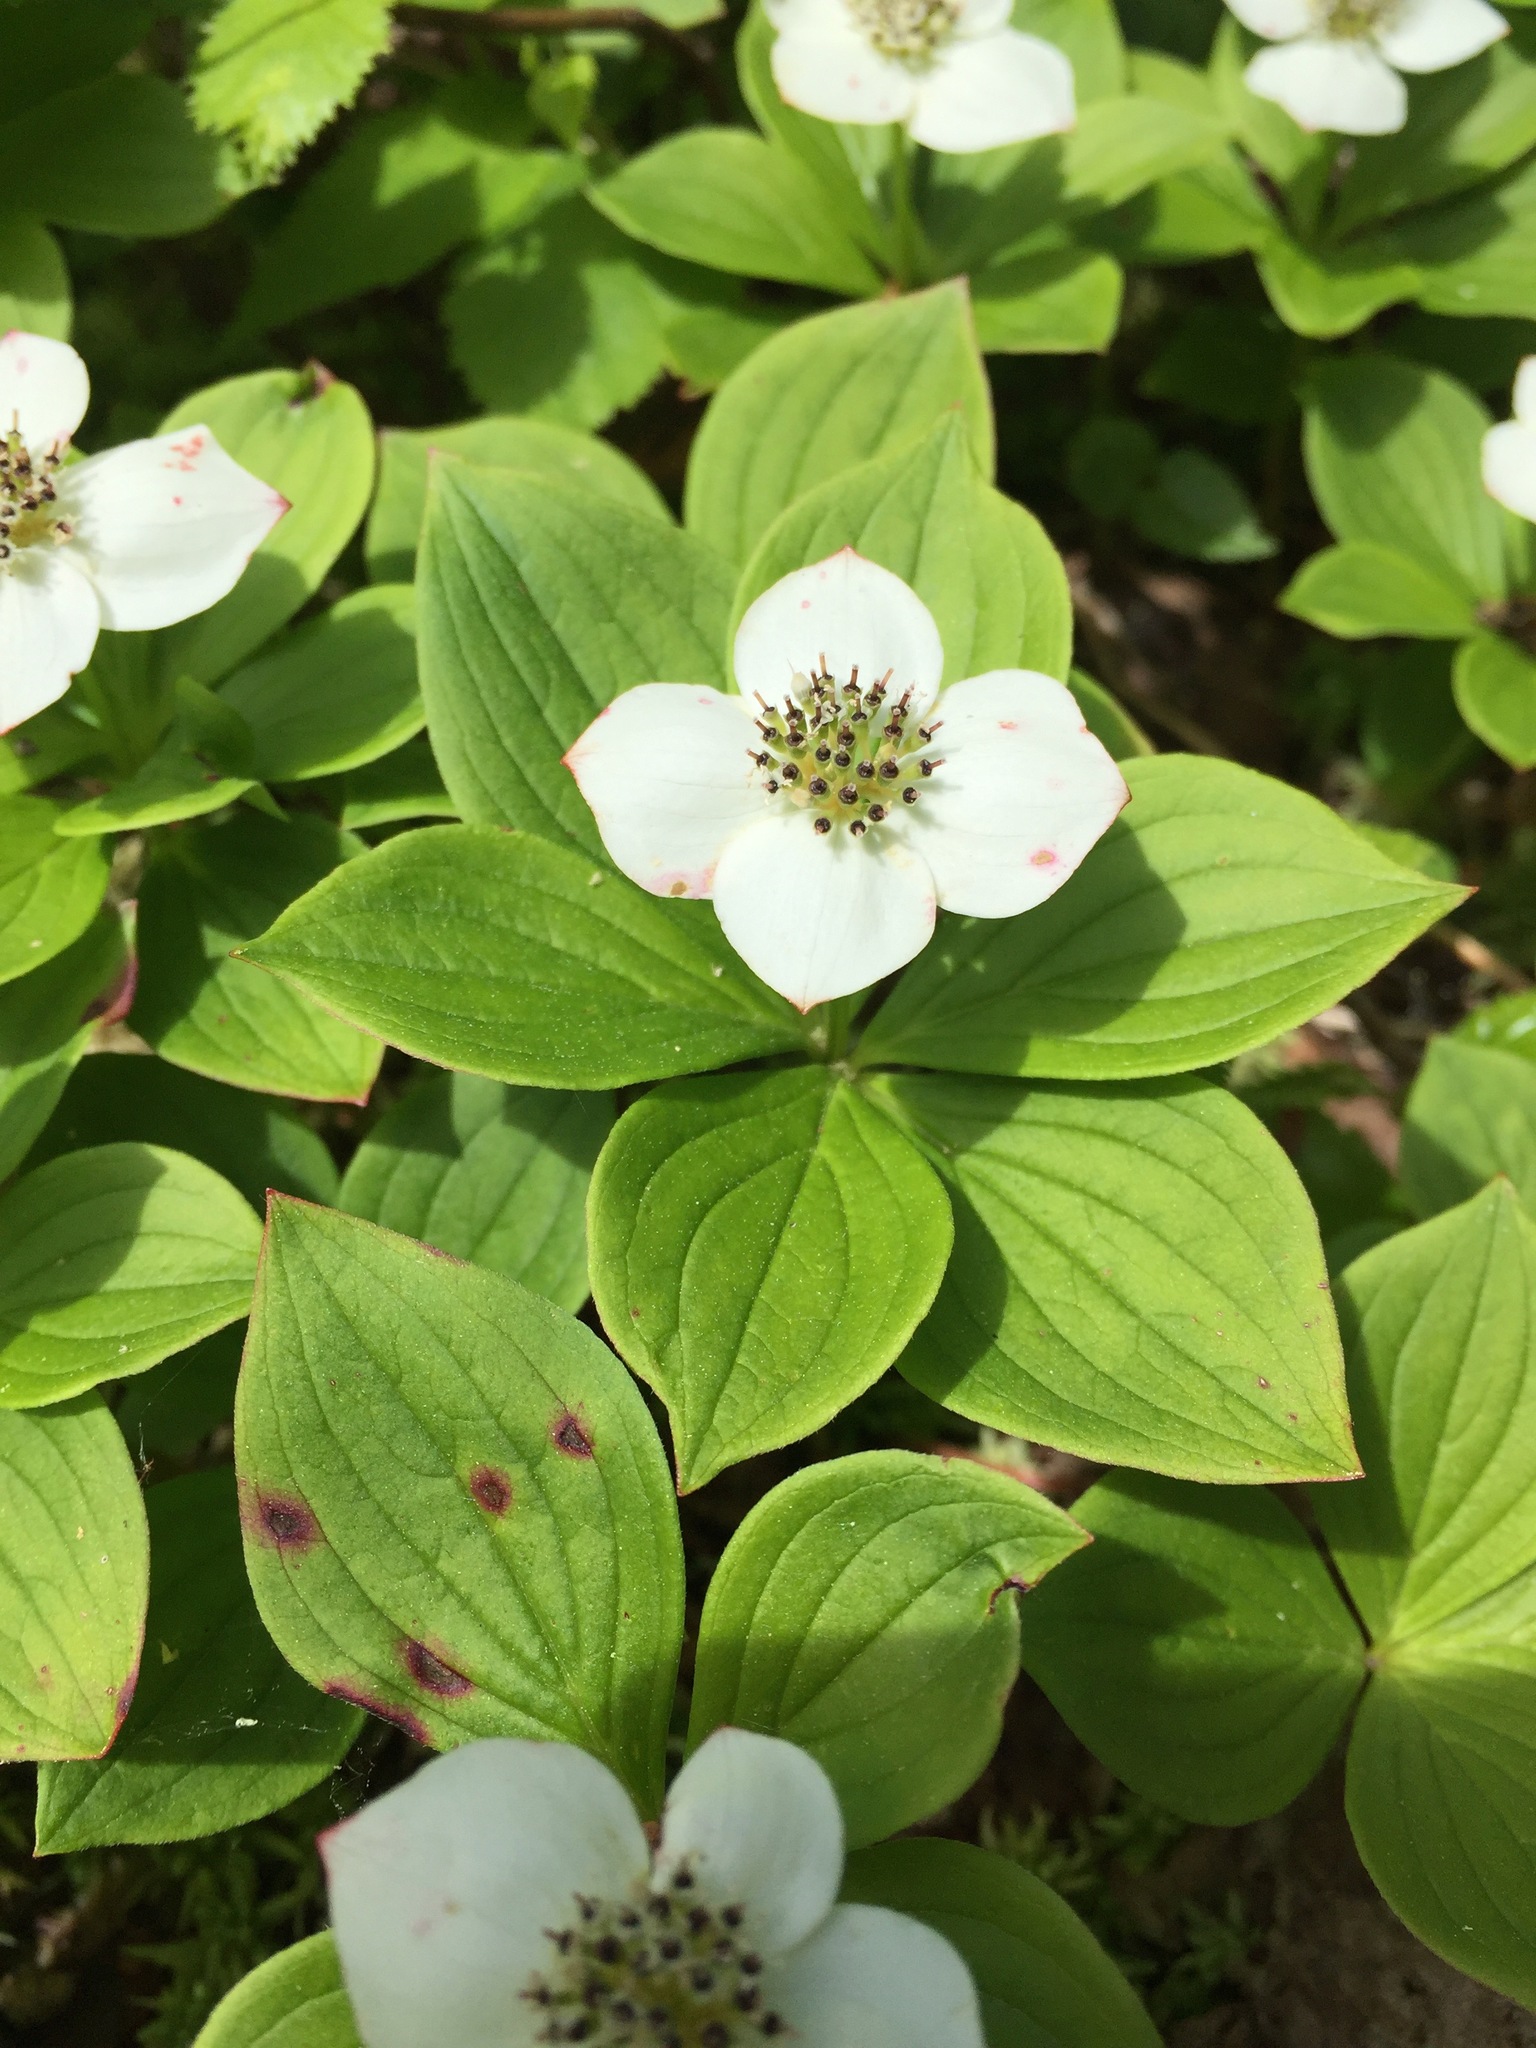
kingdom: Plantae
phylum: Tracheophyta
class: Magnoliopsida
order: Cornales
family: Cornaceae
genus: Cornus
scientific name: Cornus canadensis
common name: Creeping dogwood
